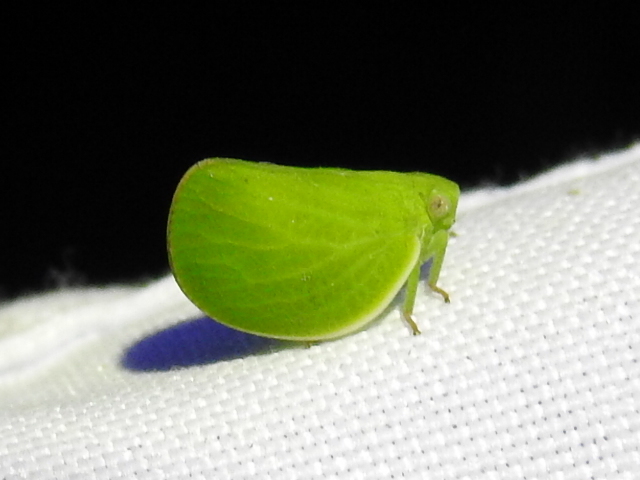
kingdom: Animalia
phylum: Arthropoda
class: Insecta
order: Hemiptera
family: Acanaloniidae
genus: Acanalonia
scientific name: Acanalonia virescens
